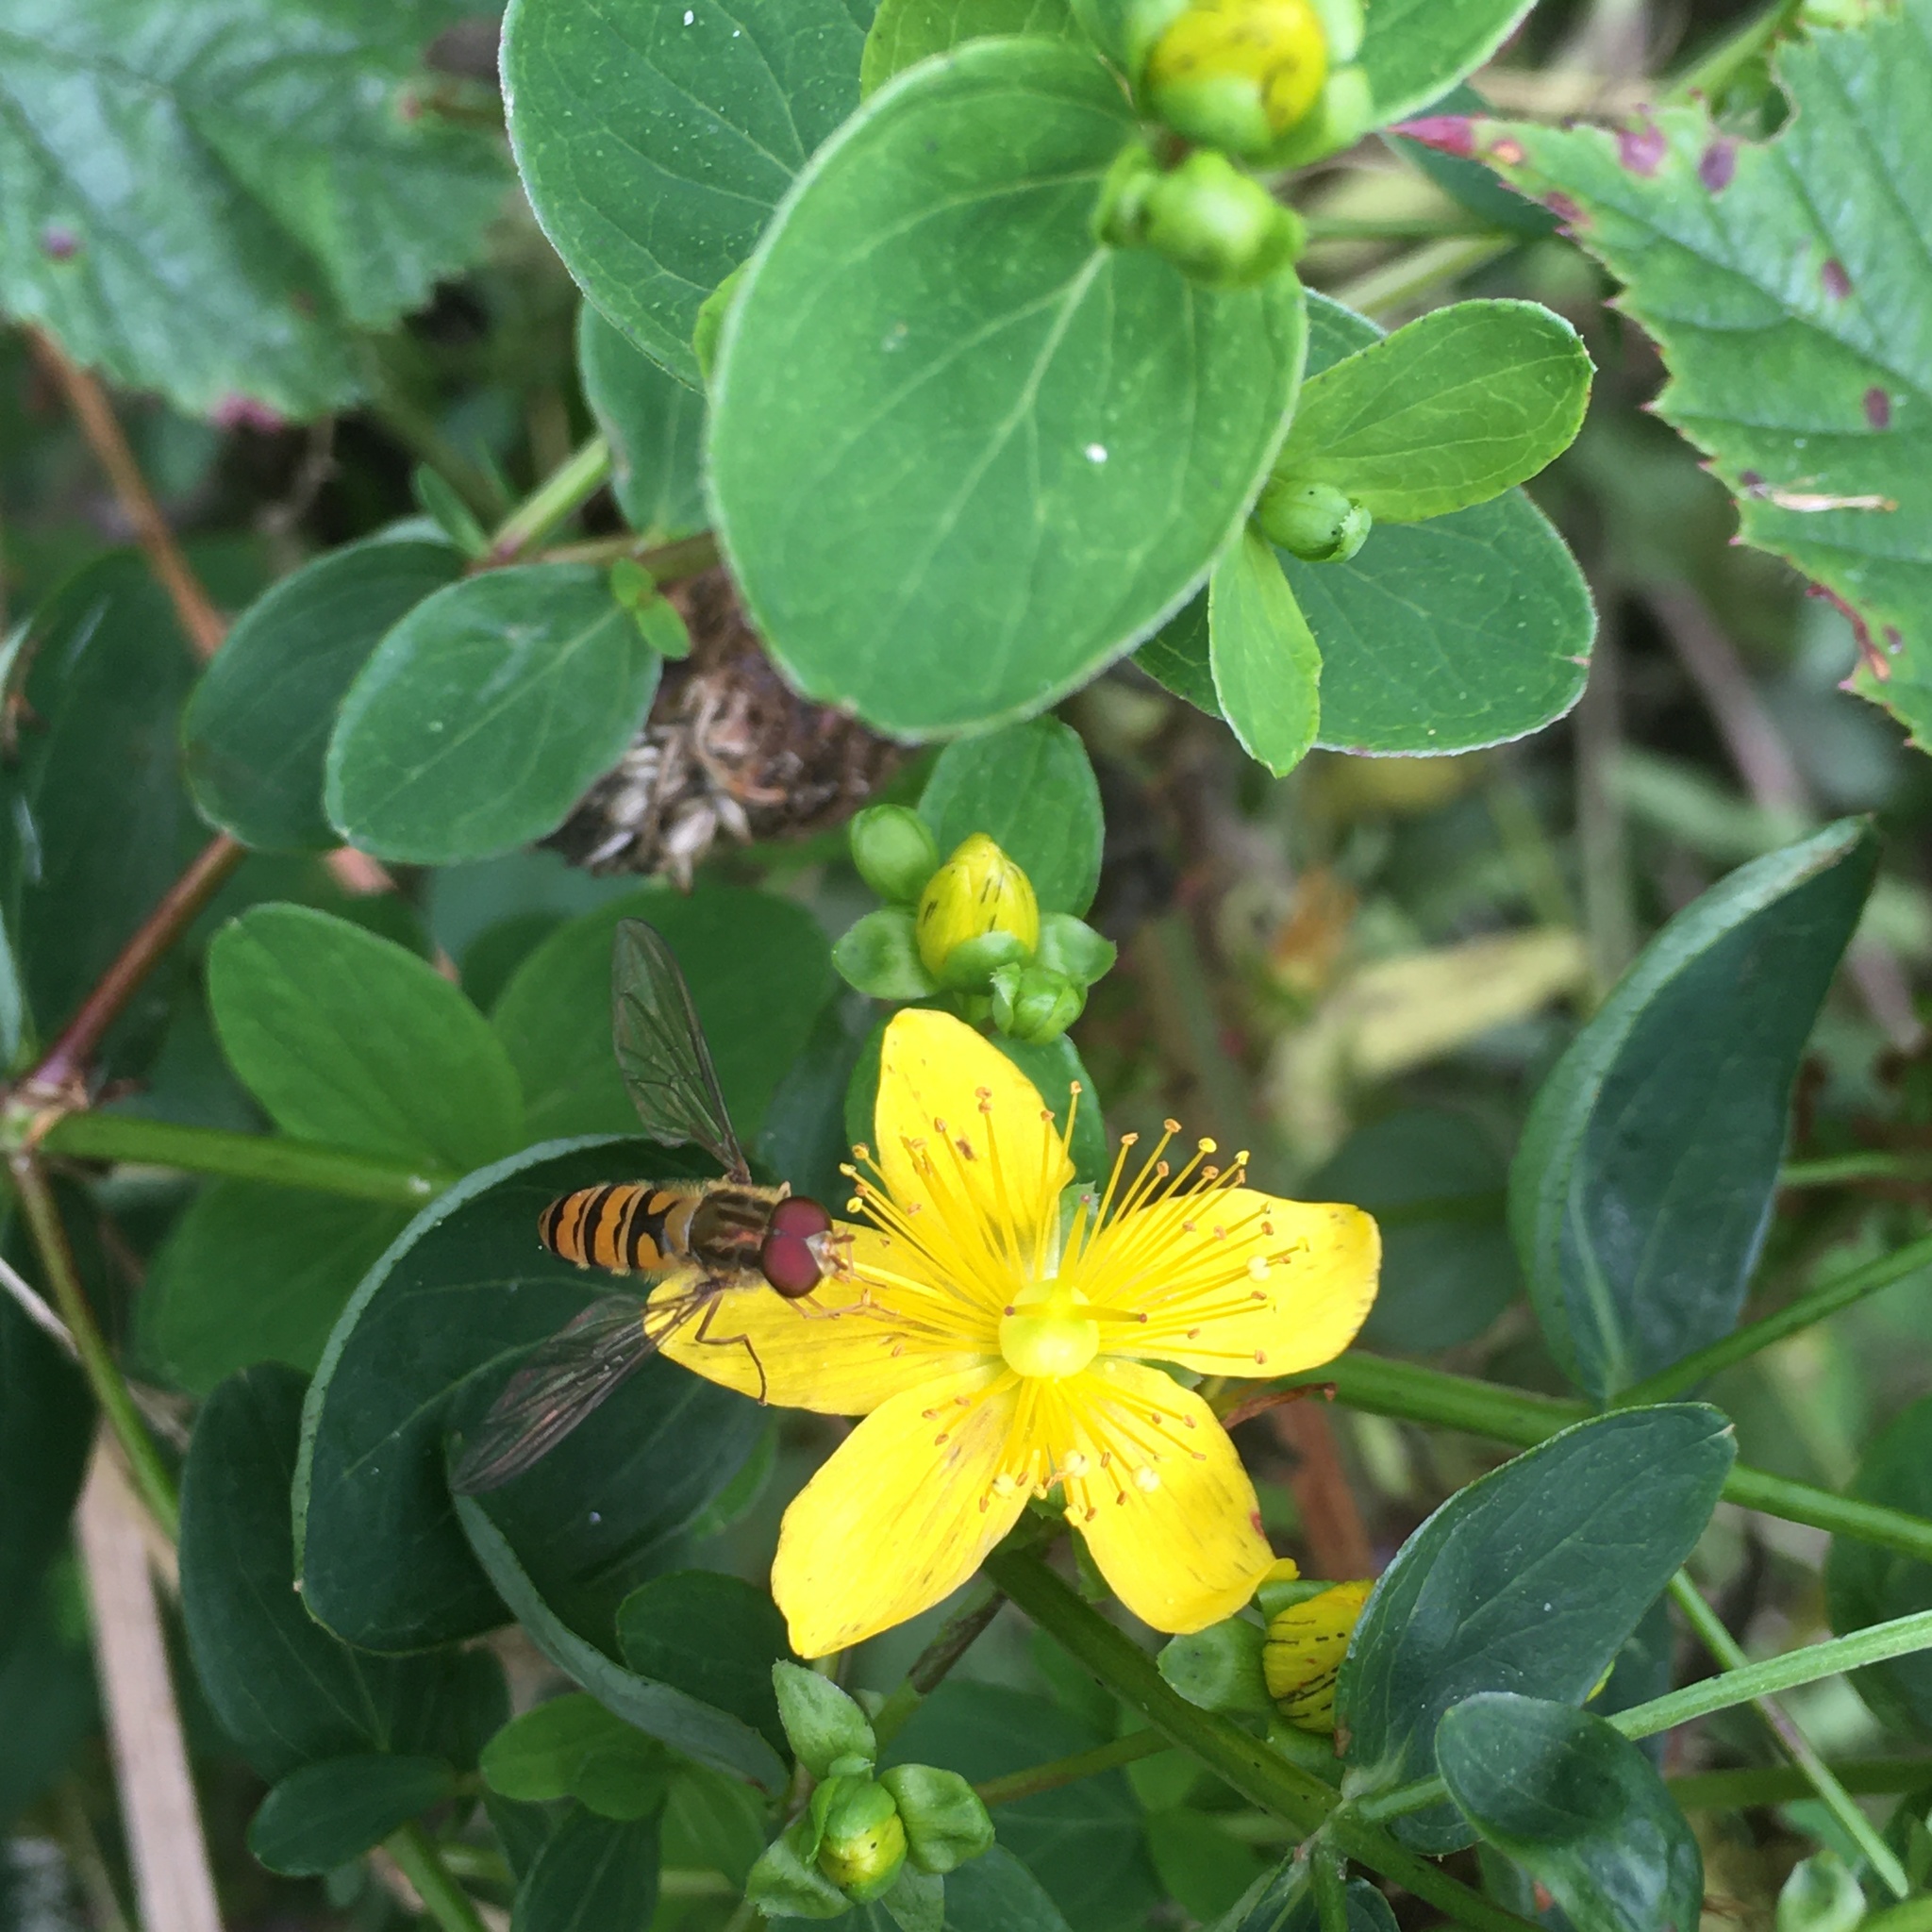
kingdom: Animalia
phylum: Arthropoda
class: Insecta
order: Diptera
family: Syrphidae
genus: Episyrphus
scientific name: Episyrphus balteatus
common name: Marmalade hoverfly
